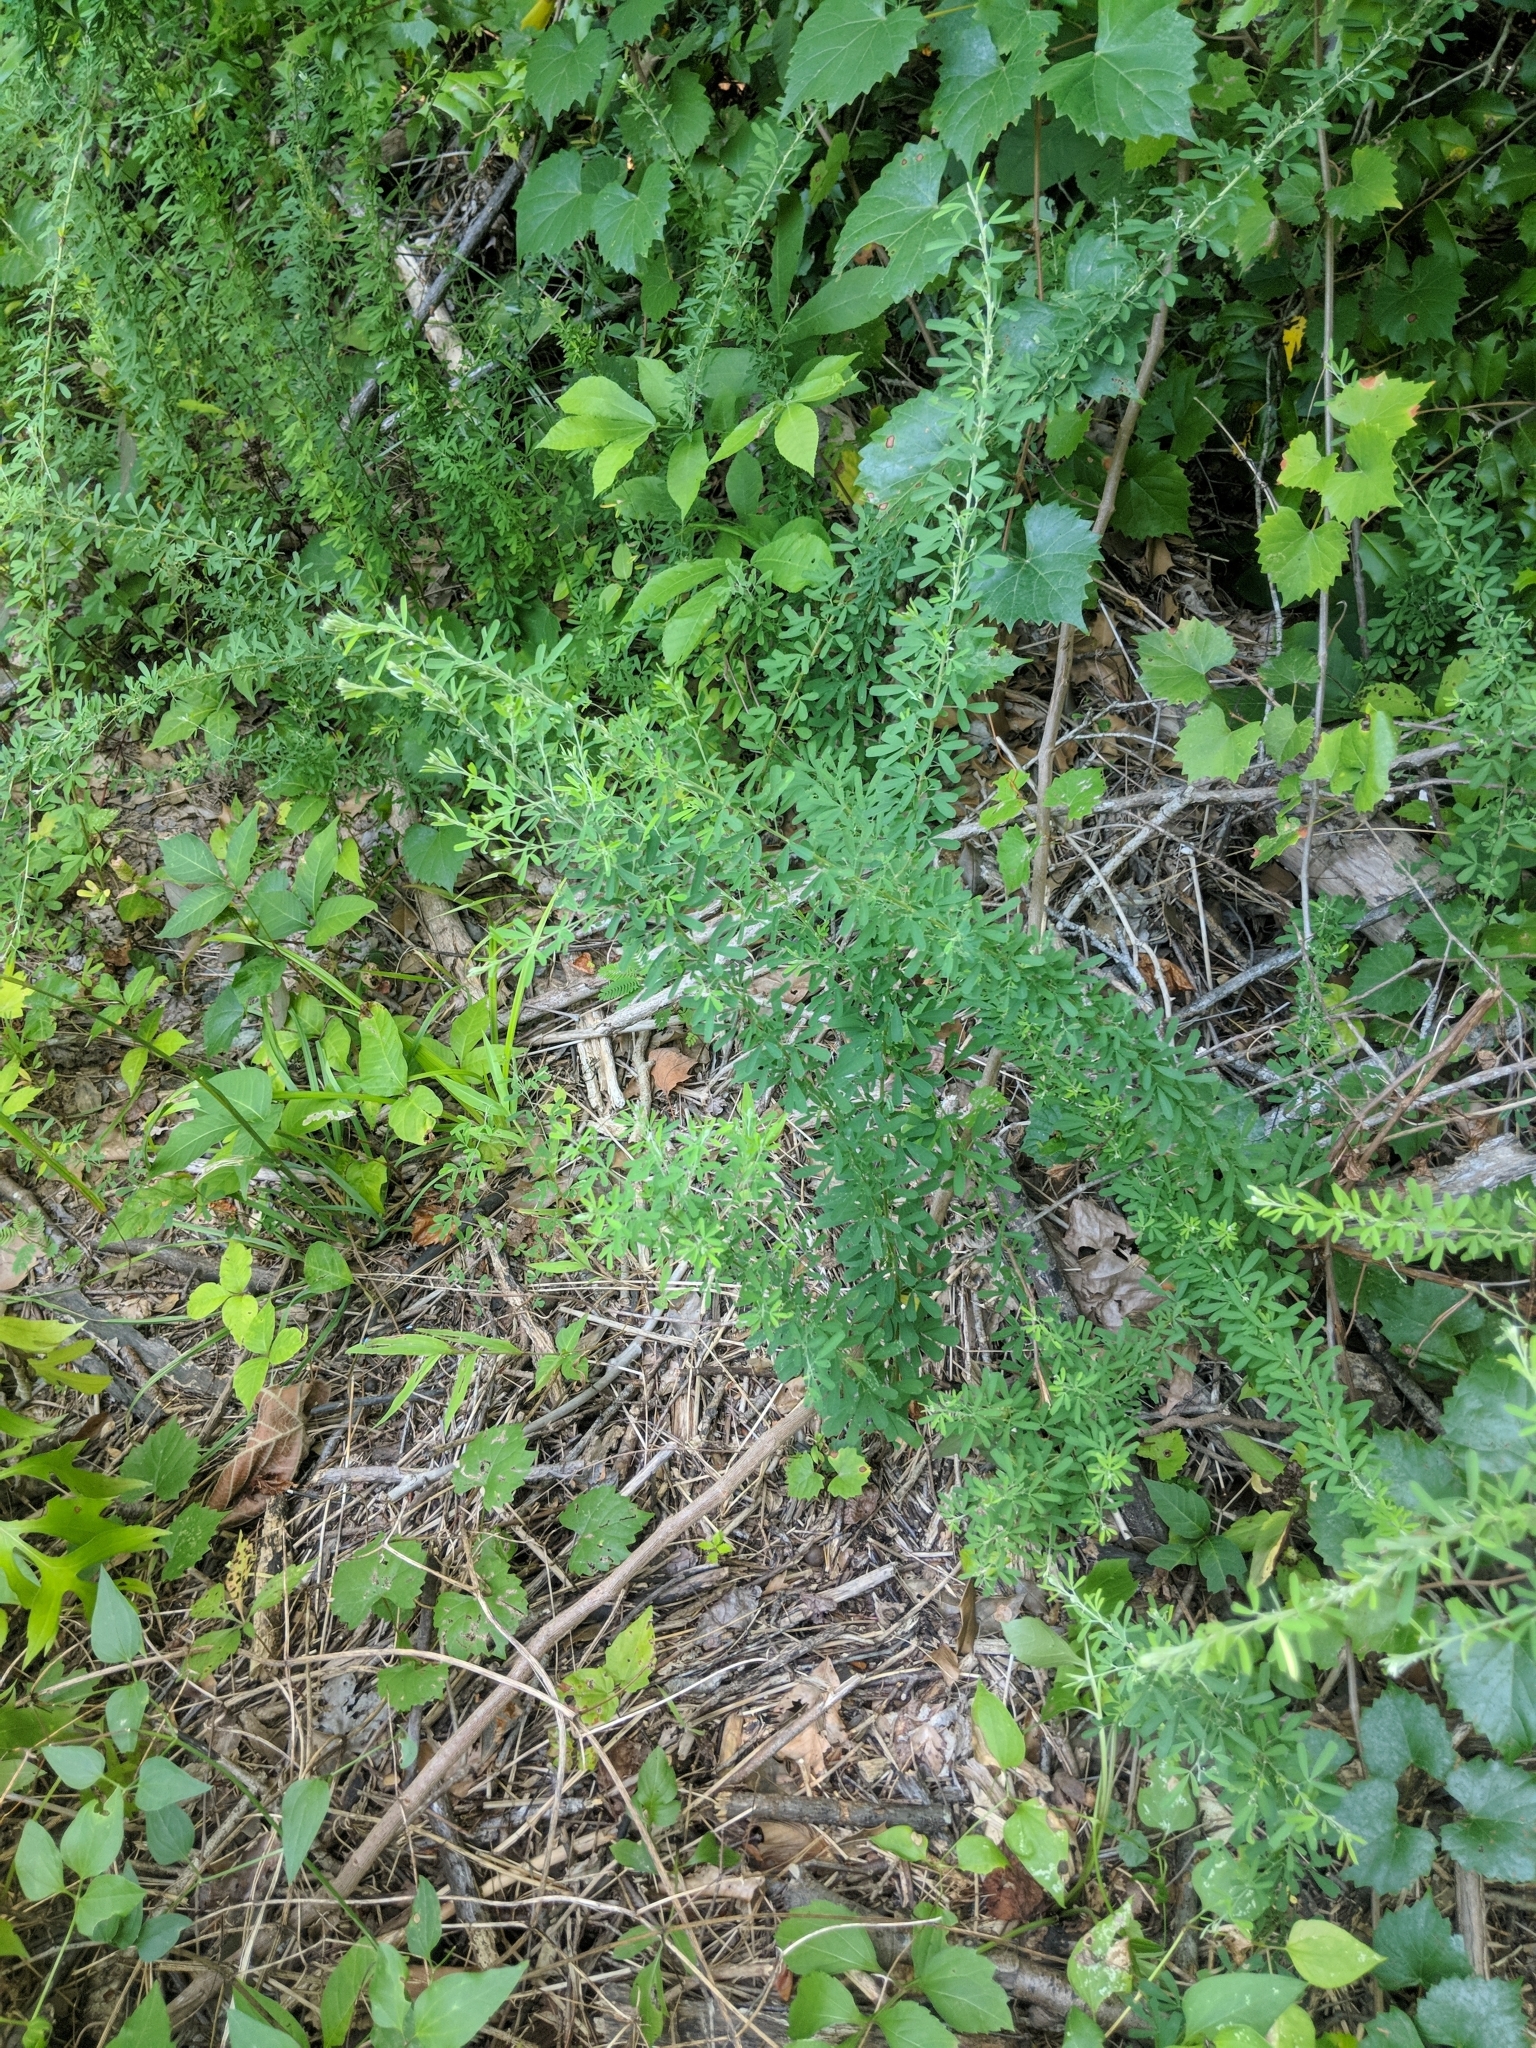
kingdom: Plantae
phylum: Tracheophyta
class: Magnoliopsida
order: Fabales
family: Fabaceae
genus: Lespedeza
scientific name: Lespedeza cuneata
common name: Chinese bush-clover
